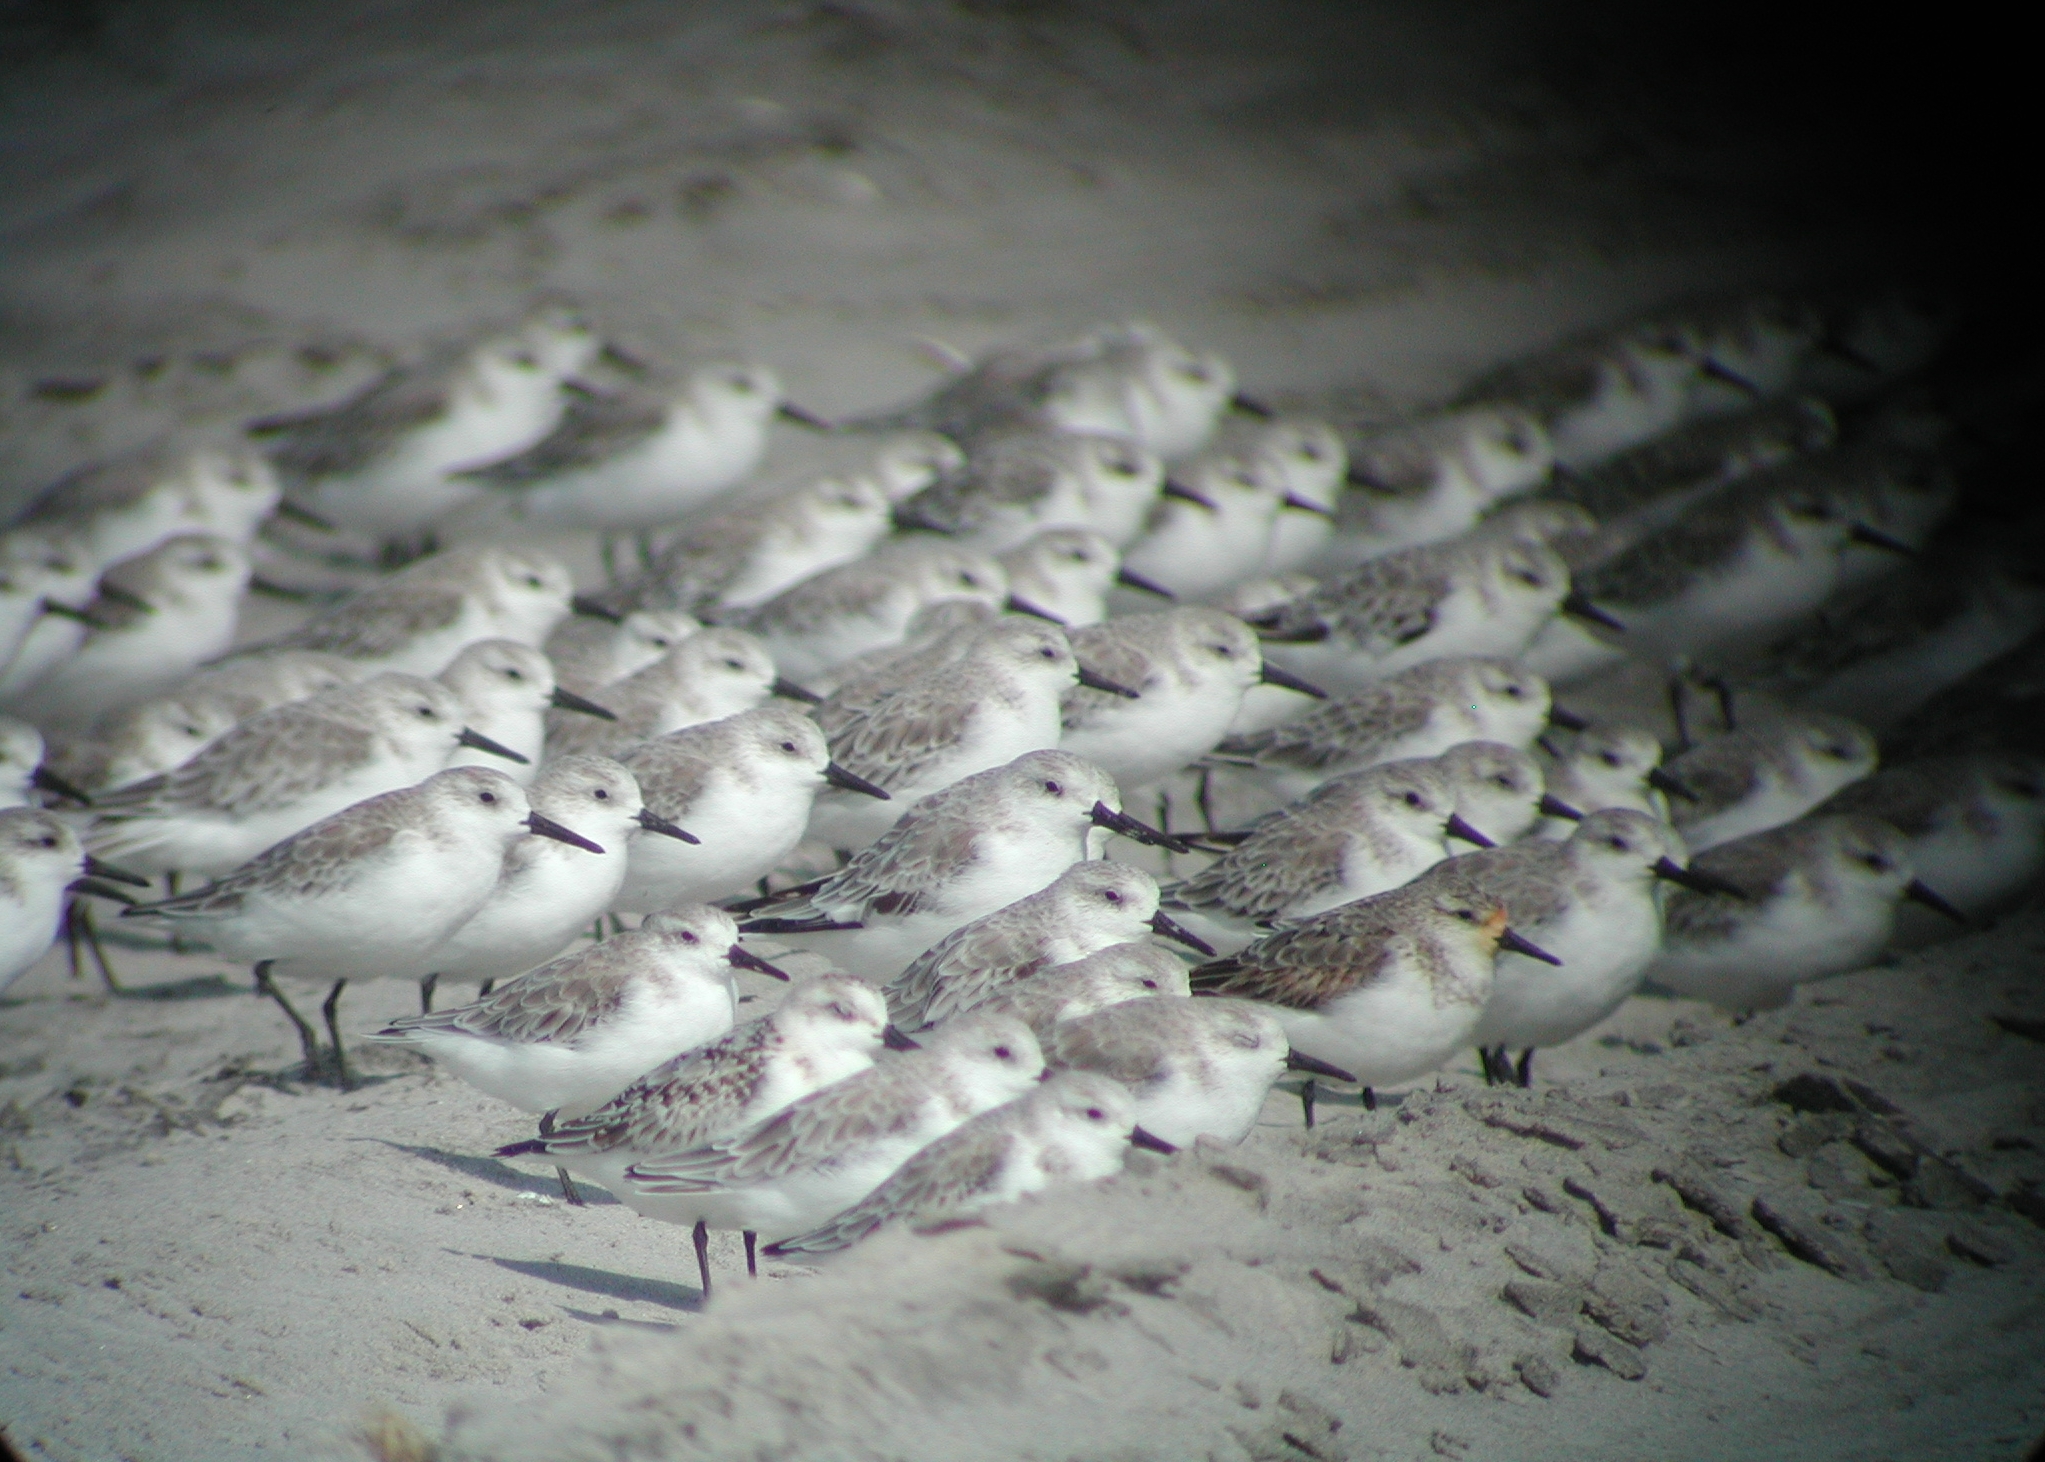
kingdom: Animalia
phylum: Chordata
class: Aves
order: Charadriiformes
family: Scolopacidae
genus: Calidris
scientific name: Calidris alba
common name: Sanderling
